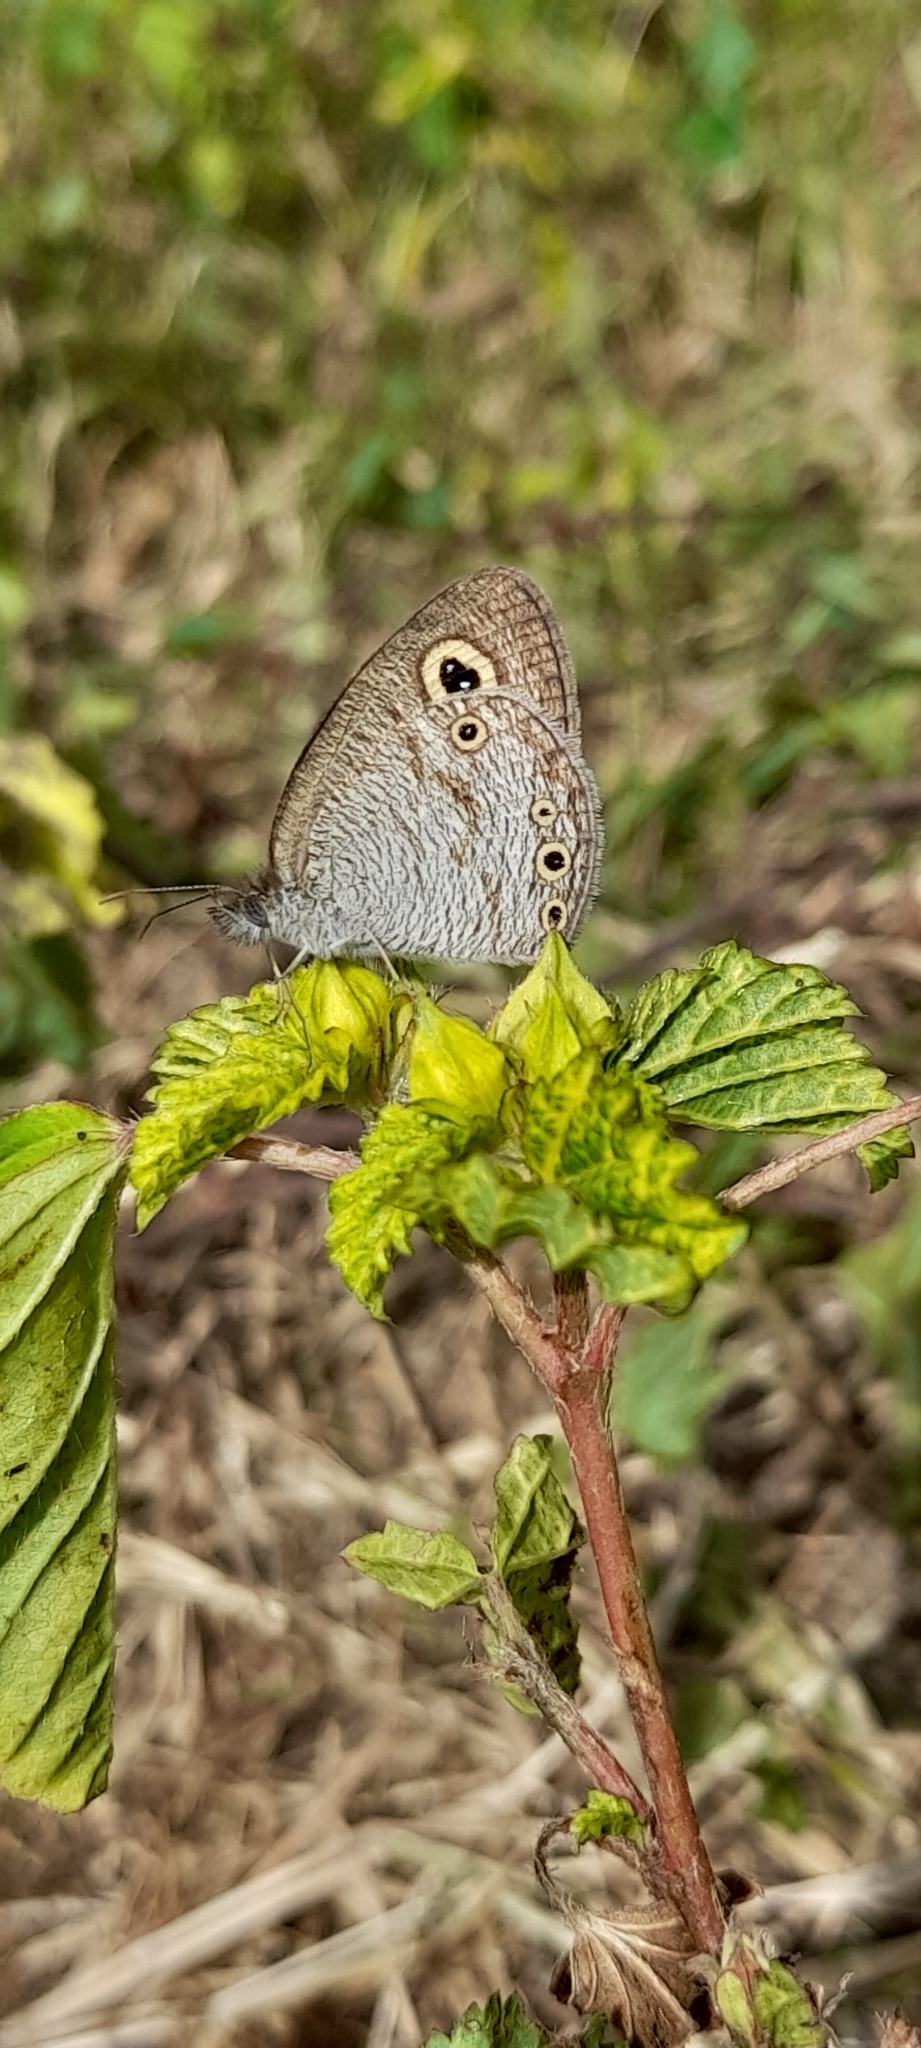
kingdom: Animalia
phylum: Arthropoda
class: Insecta
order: Lepidoptera
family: Nymphalidae
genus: Ypthima
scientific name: Ypthima huebneri
